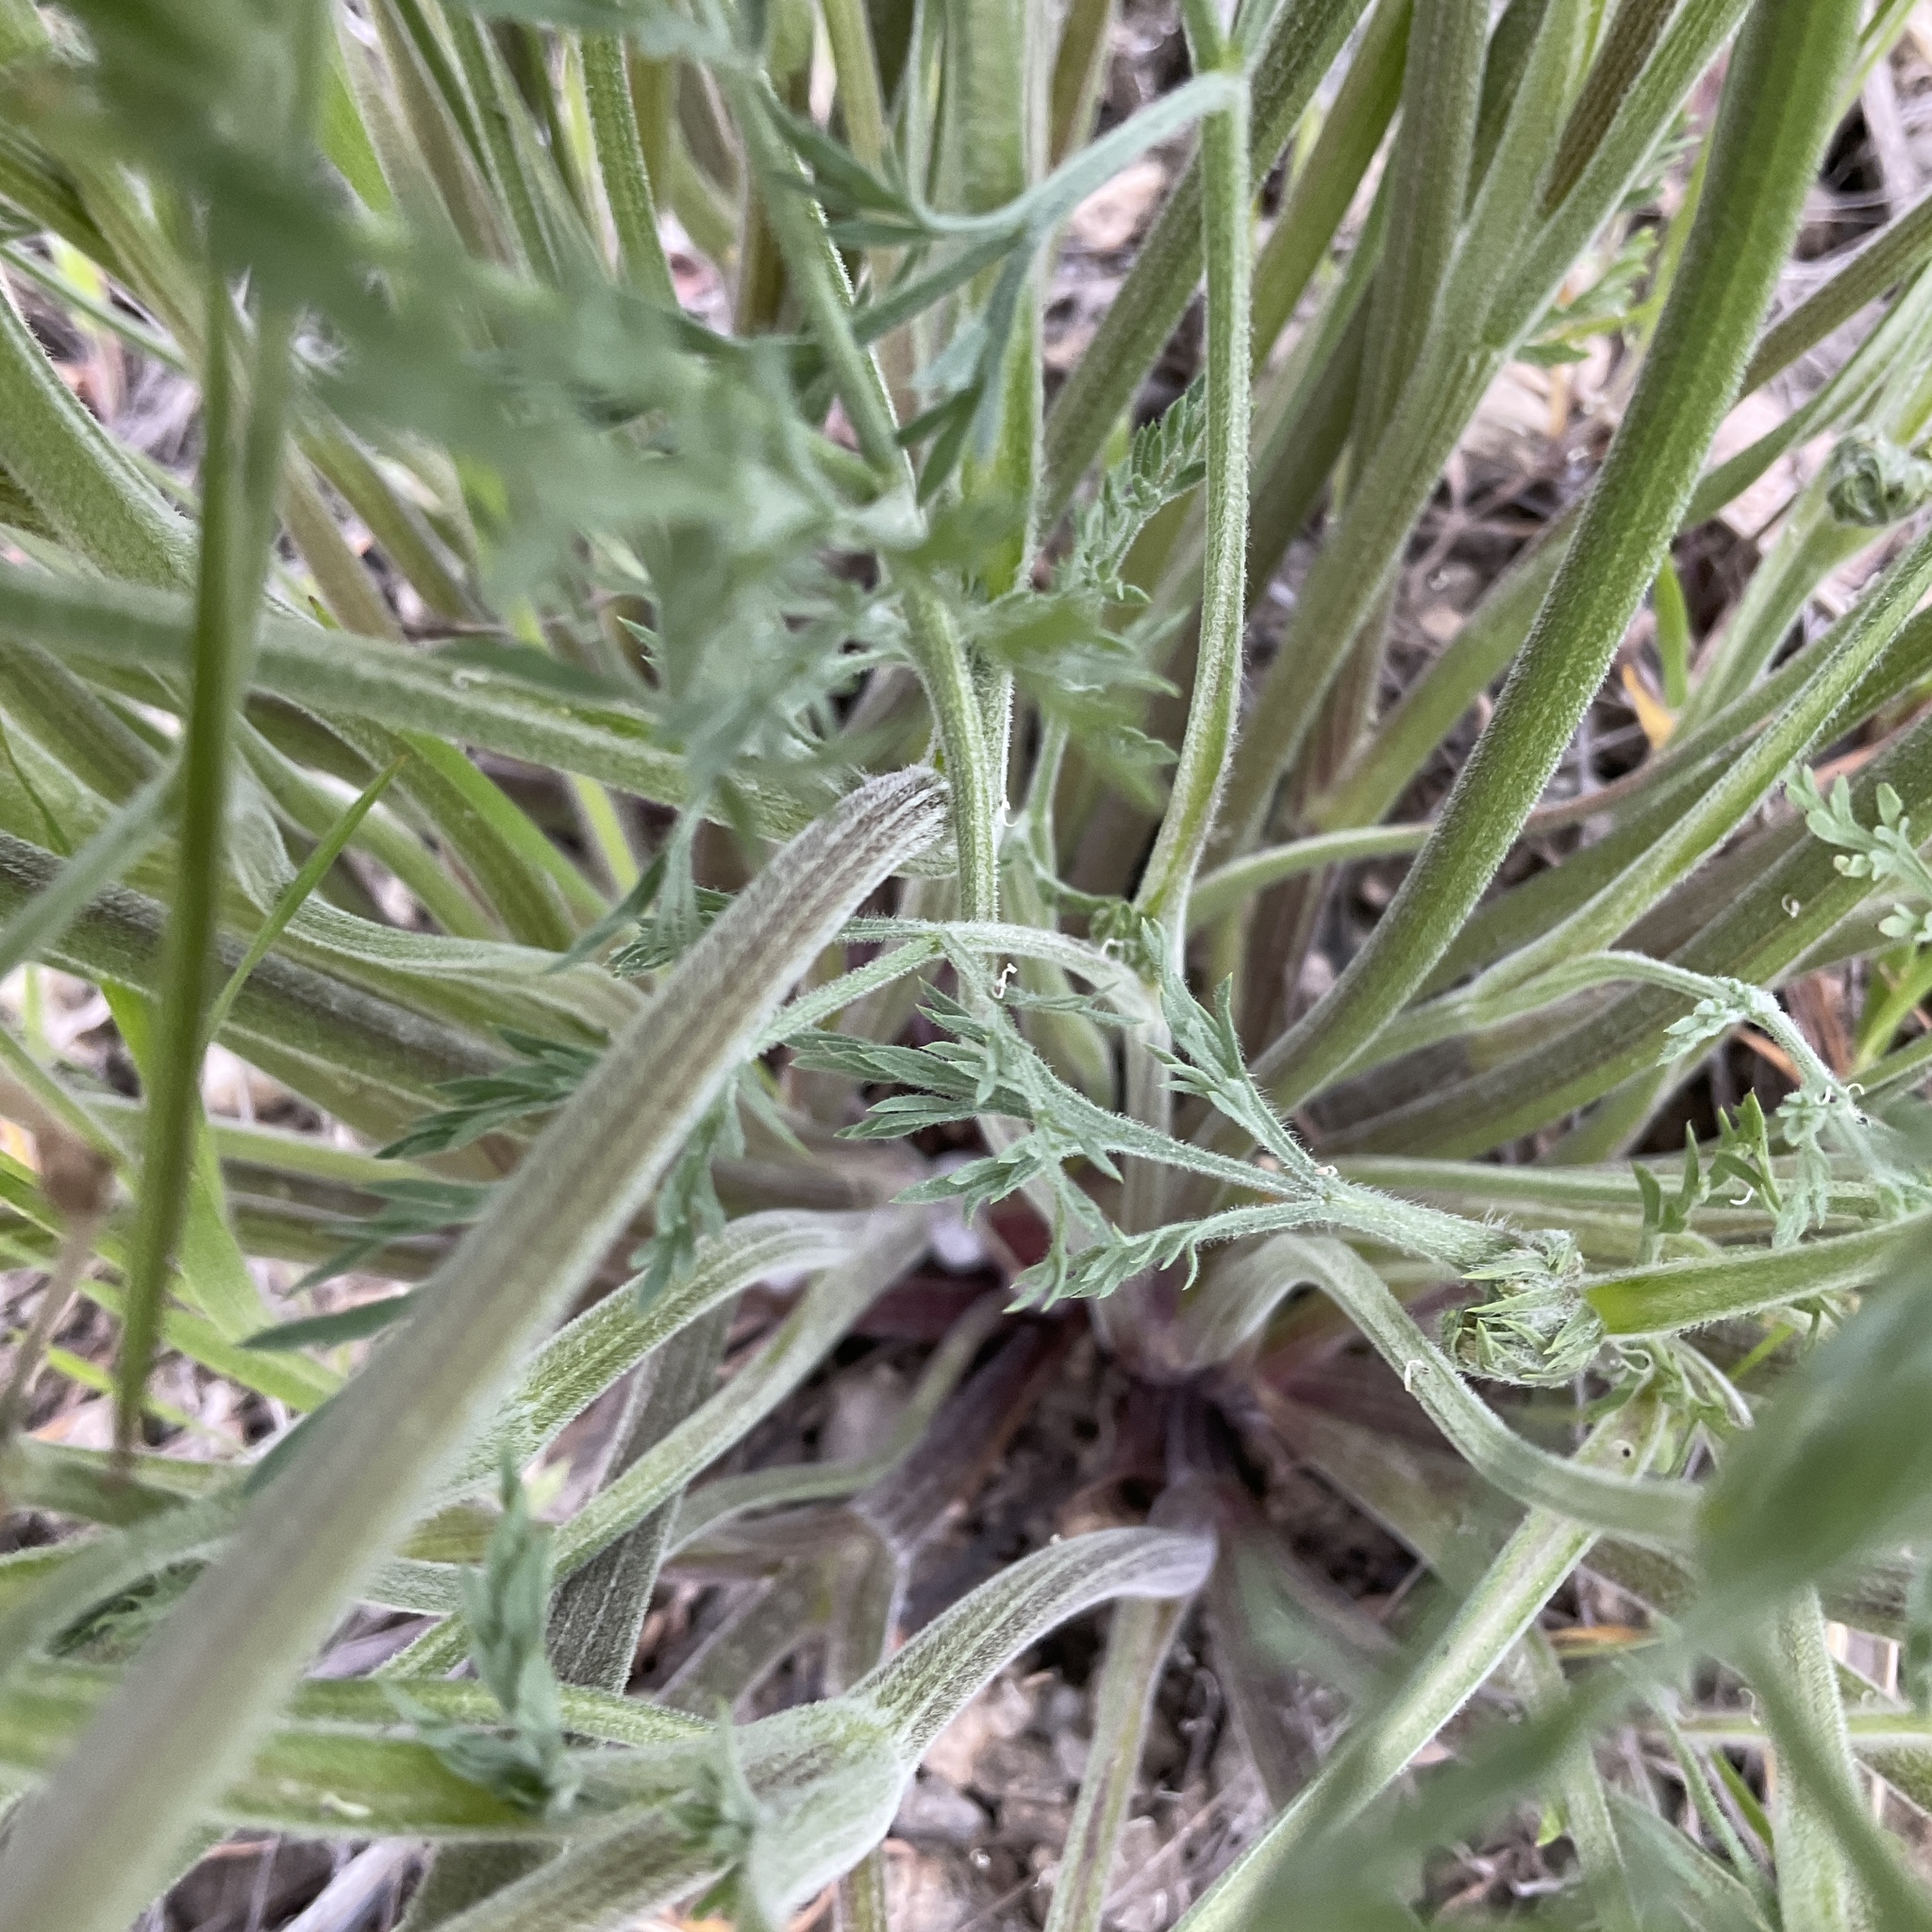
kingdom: Plantae
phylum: Tracheophyta
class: Magnoliopsida
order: Apiales
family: Apiaceae
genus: Lomatium
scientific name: Lomatium macrocarpum
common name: Big-seed biscuitroot
